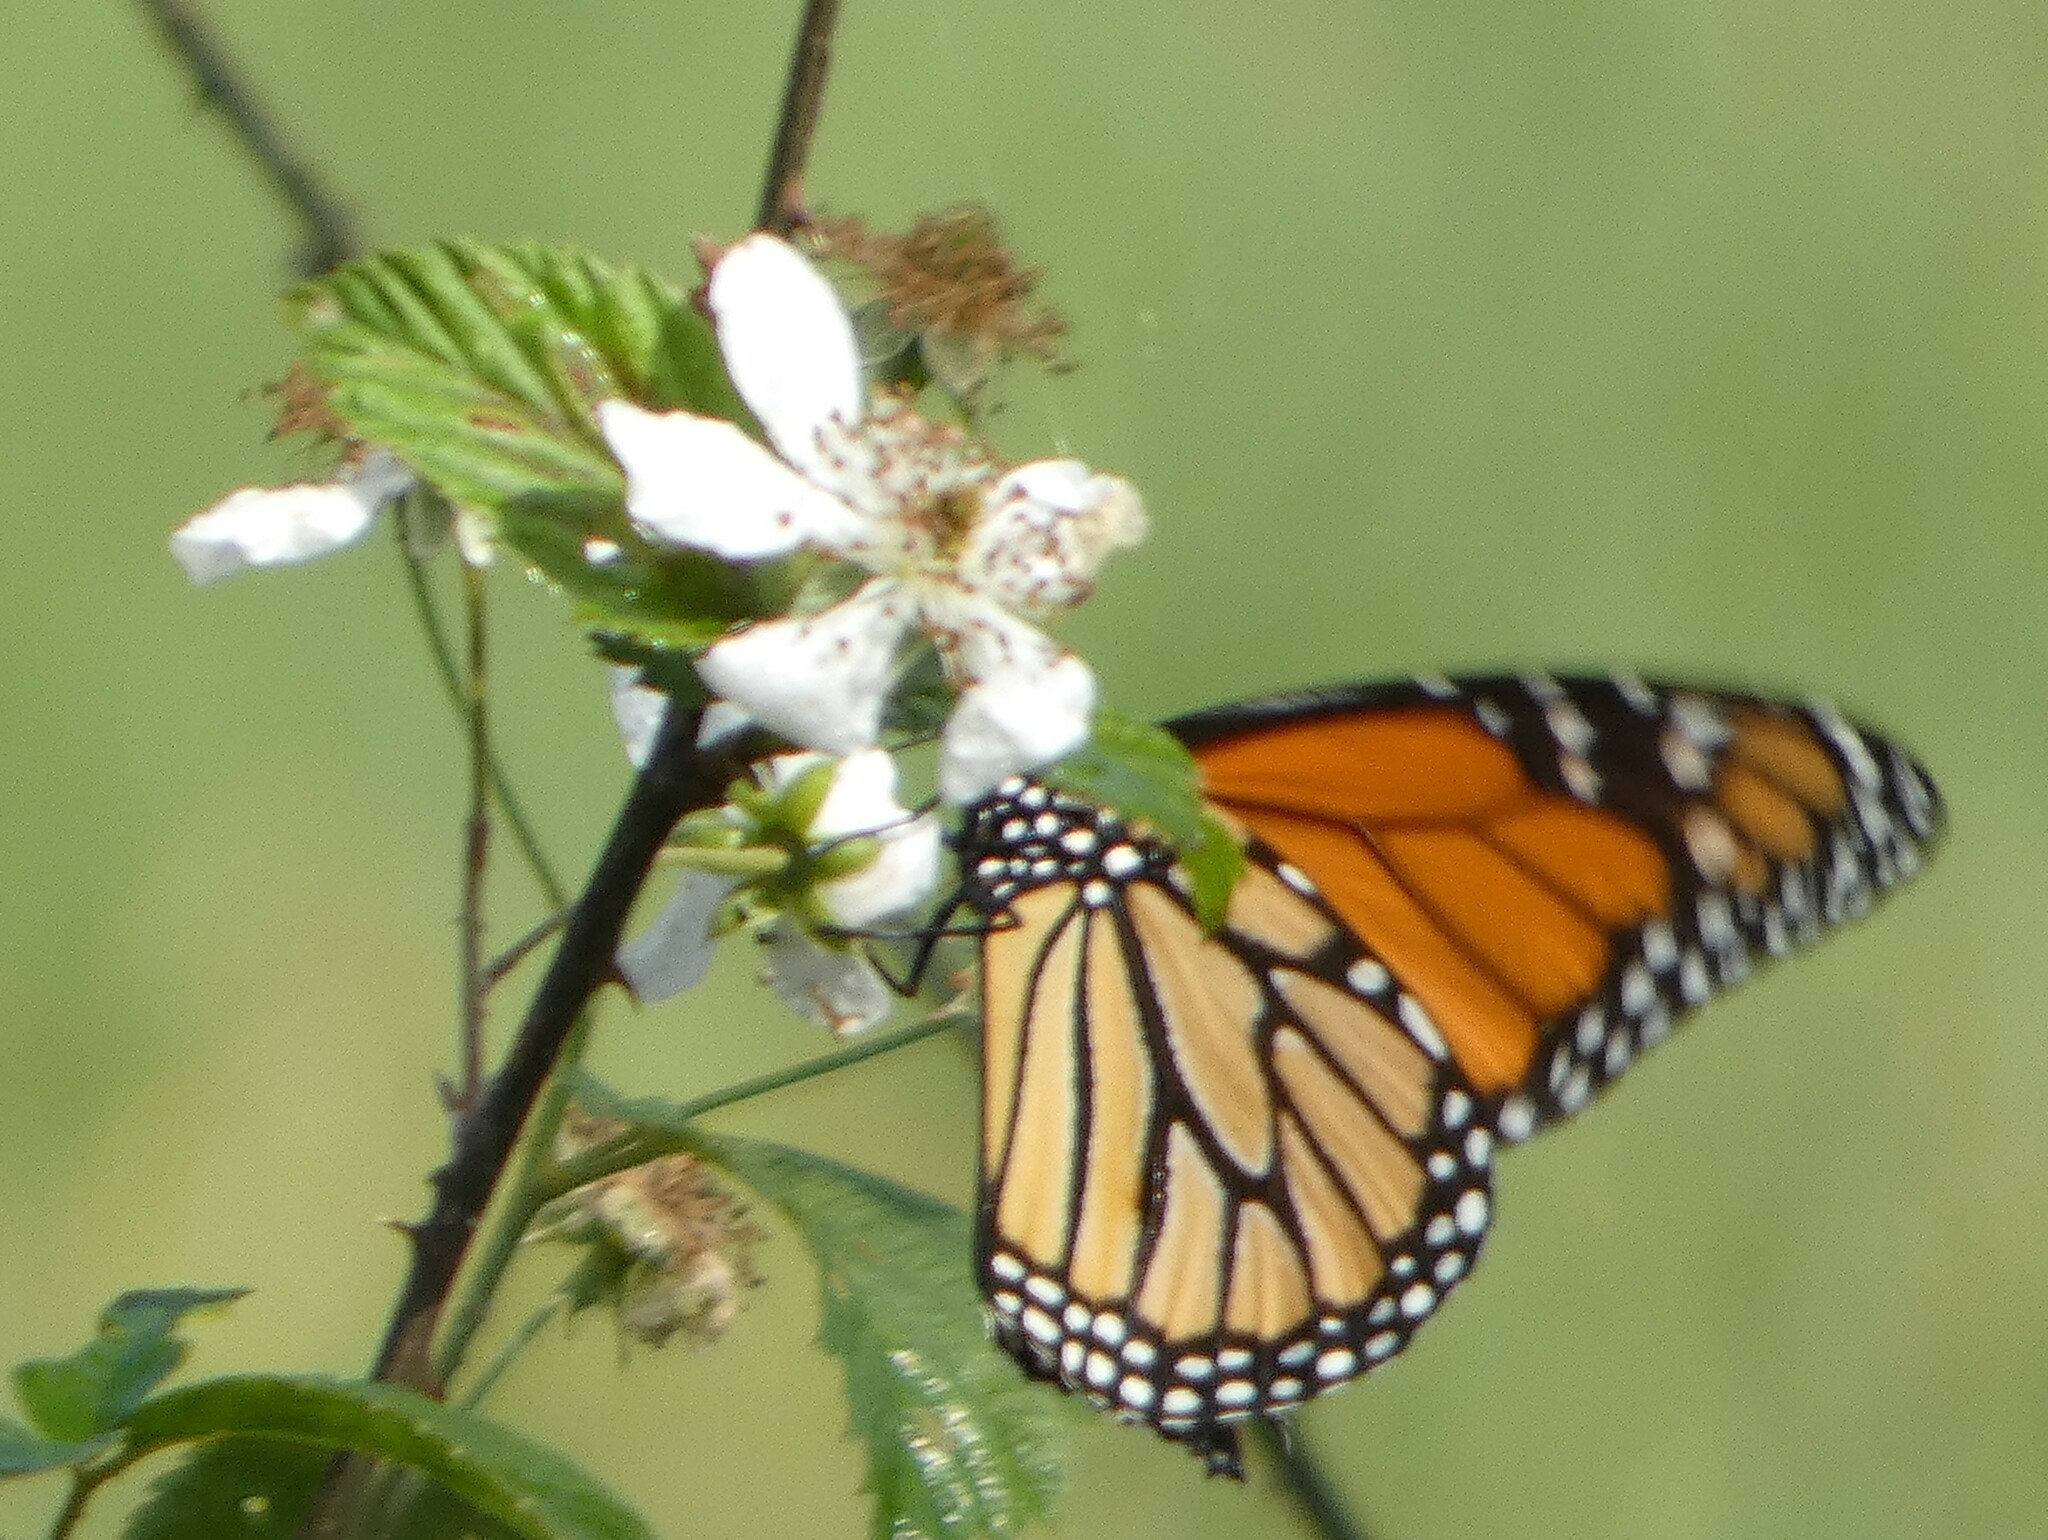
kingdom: Animalia
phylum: Arthropoda
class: Insecta
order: Lepidoptera
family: Nymphalidae
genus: Danaus
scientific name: Danaus plexippus
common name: Monarch
